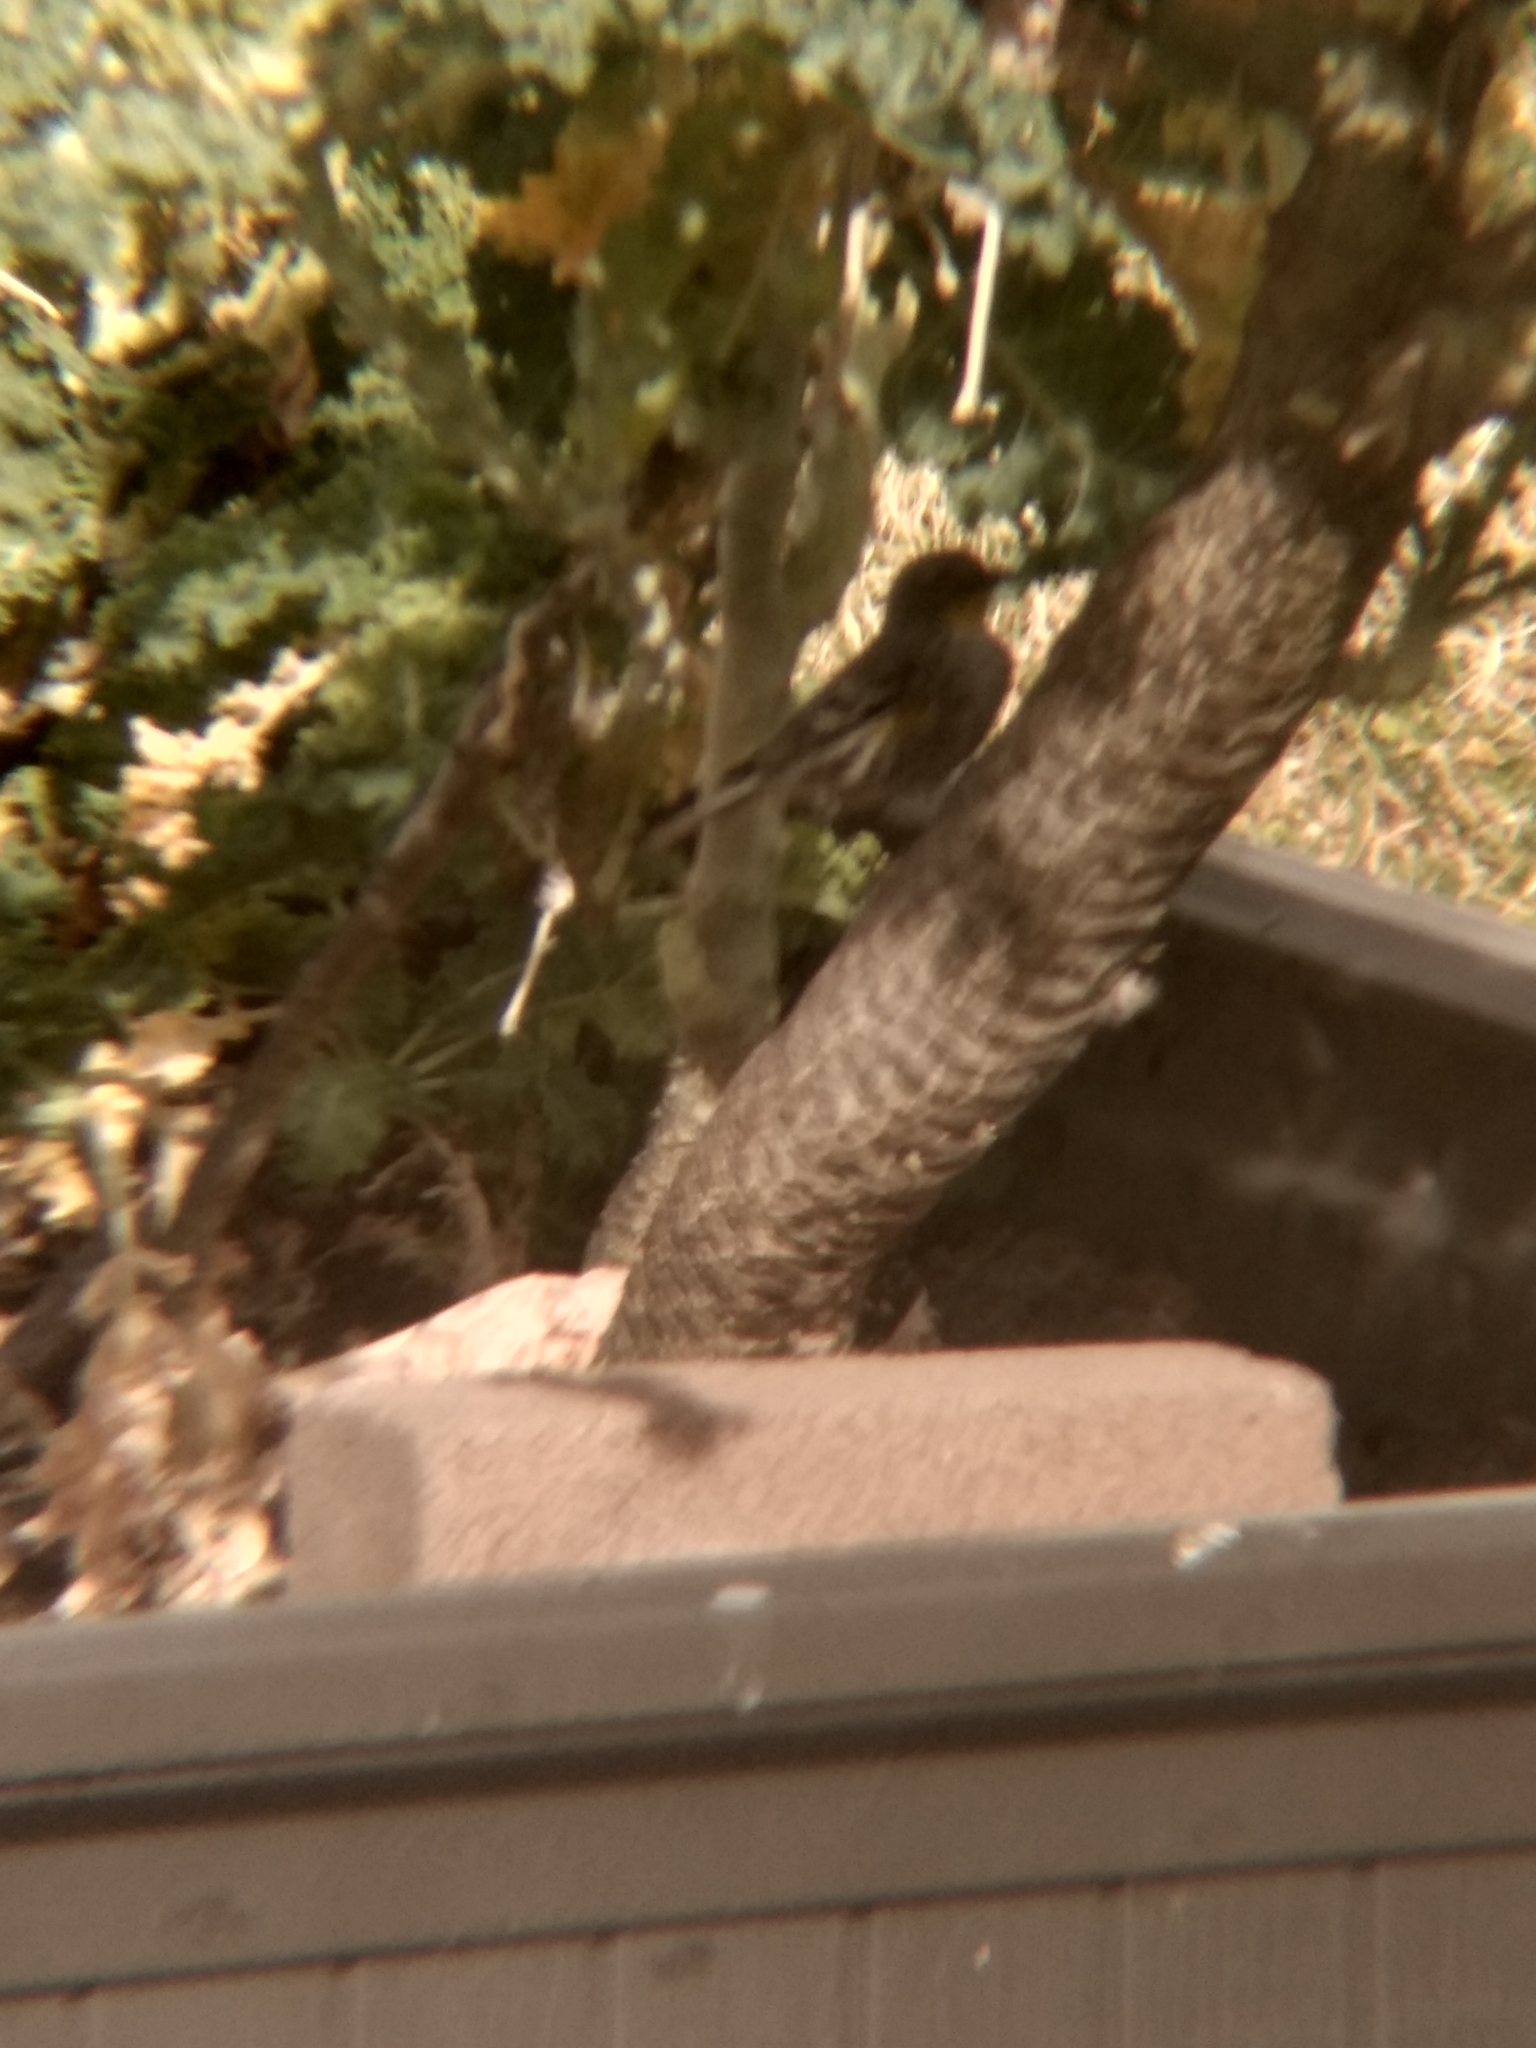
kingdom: Animalia
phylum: Chordata
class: Aves
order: Passeriformes
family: Parulidae
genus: Setophaga
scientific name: Setophaga coronata
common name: Myrtle warbler
